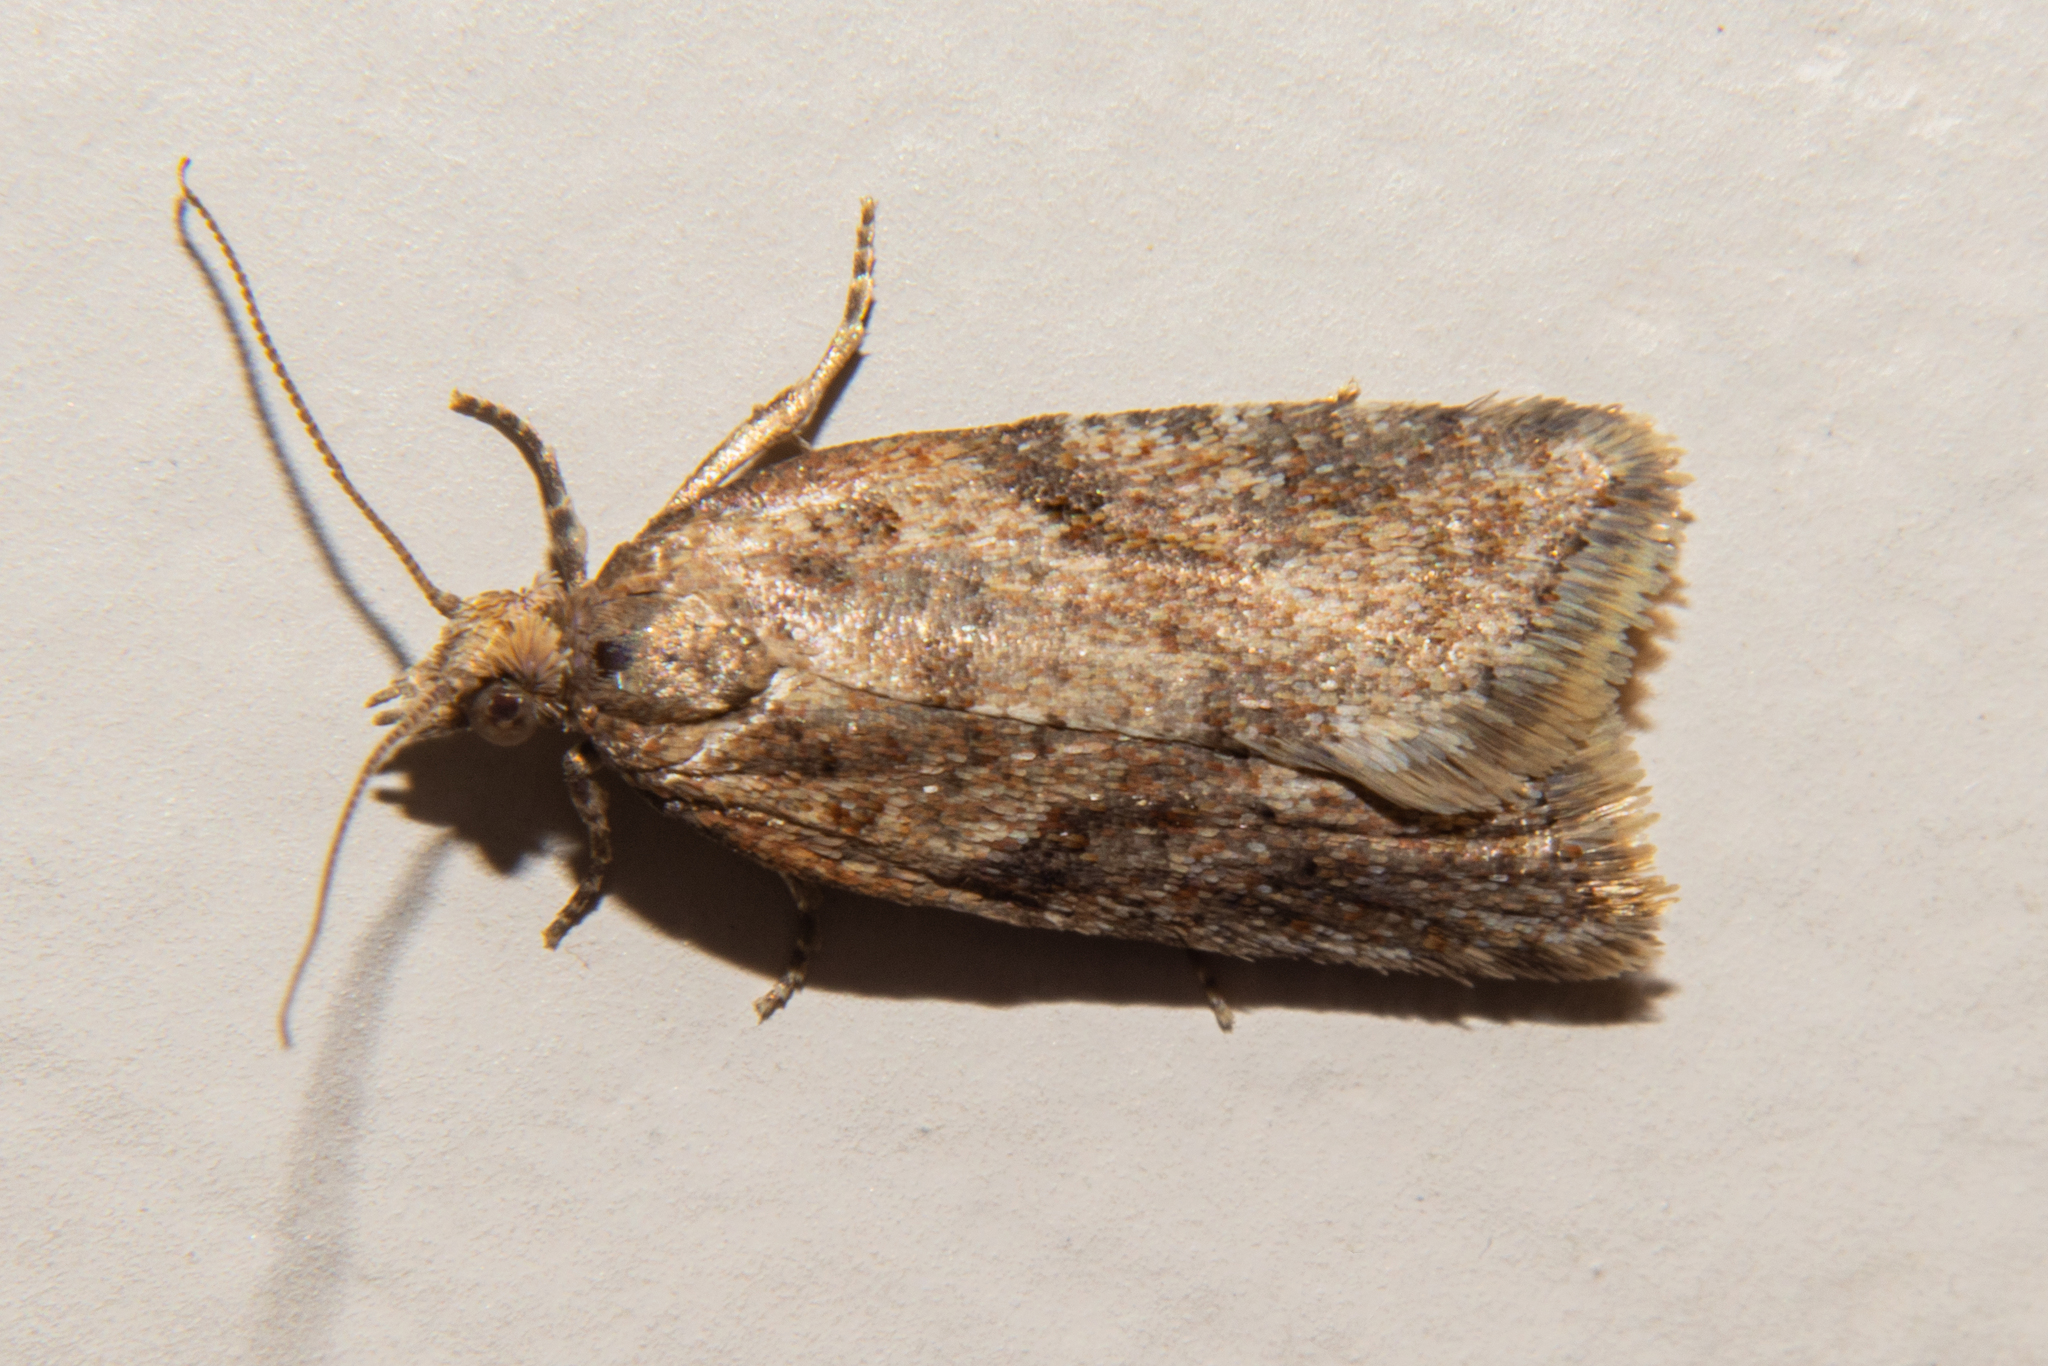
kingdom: Animalia
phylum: Arthropoda
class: Insecta
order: Lepidoptera
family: Tortricidae
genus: Capua
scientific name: Capua semiferana
